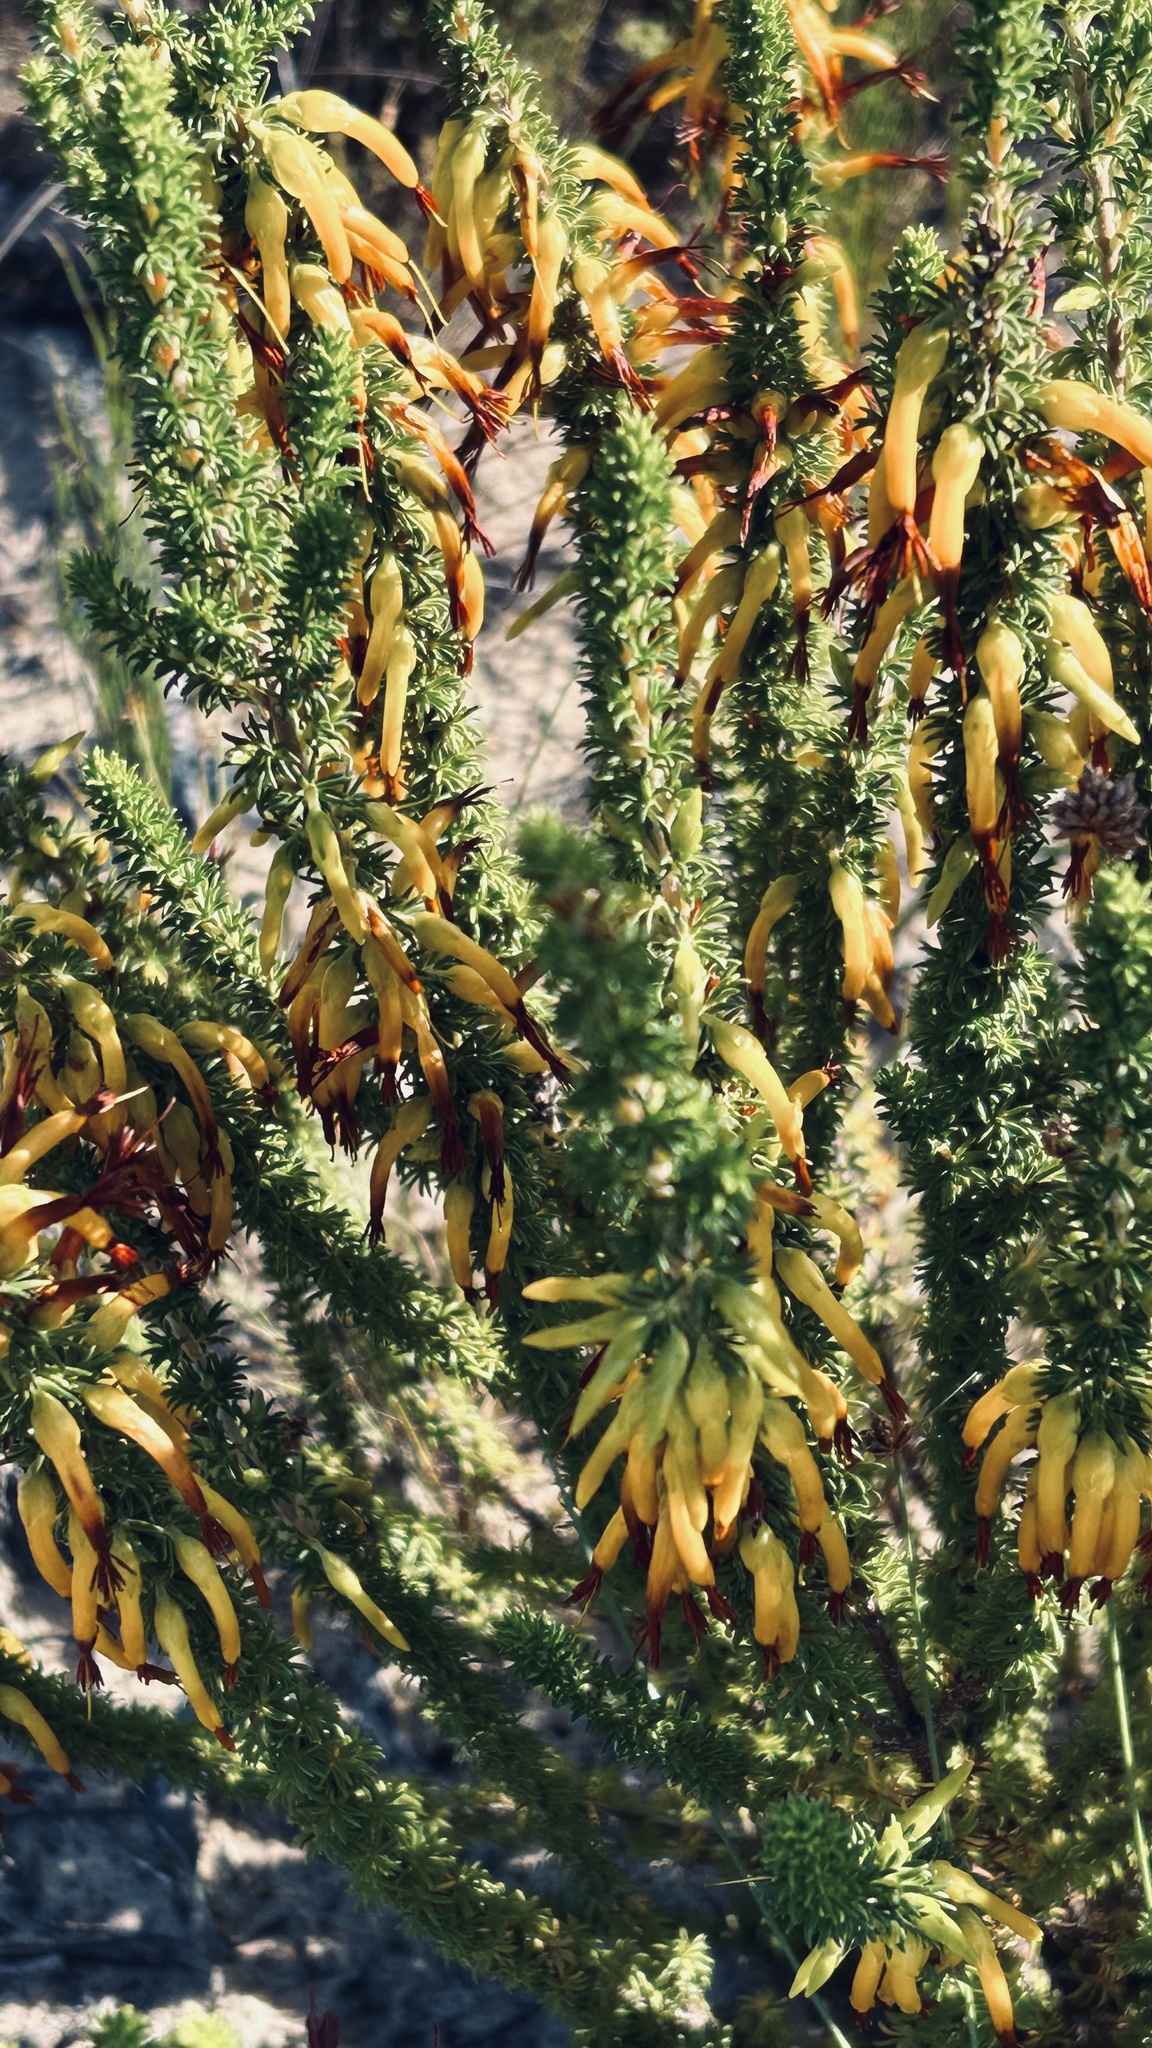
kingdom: Plantae
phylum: Tracheophyta
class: Magnoliopsida
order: Ericales
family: Ericaceae
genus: Erica
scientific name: Erica coccinea
